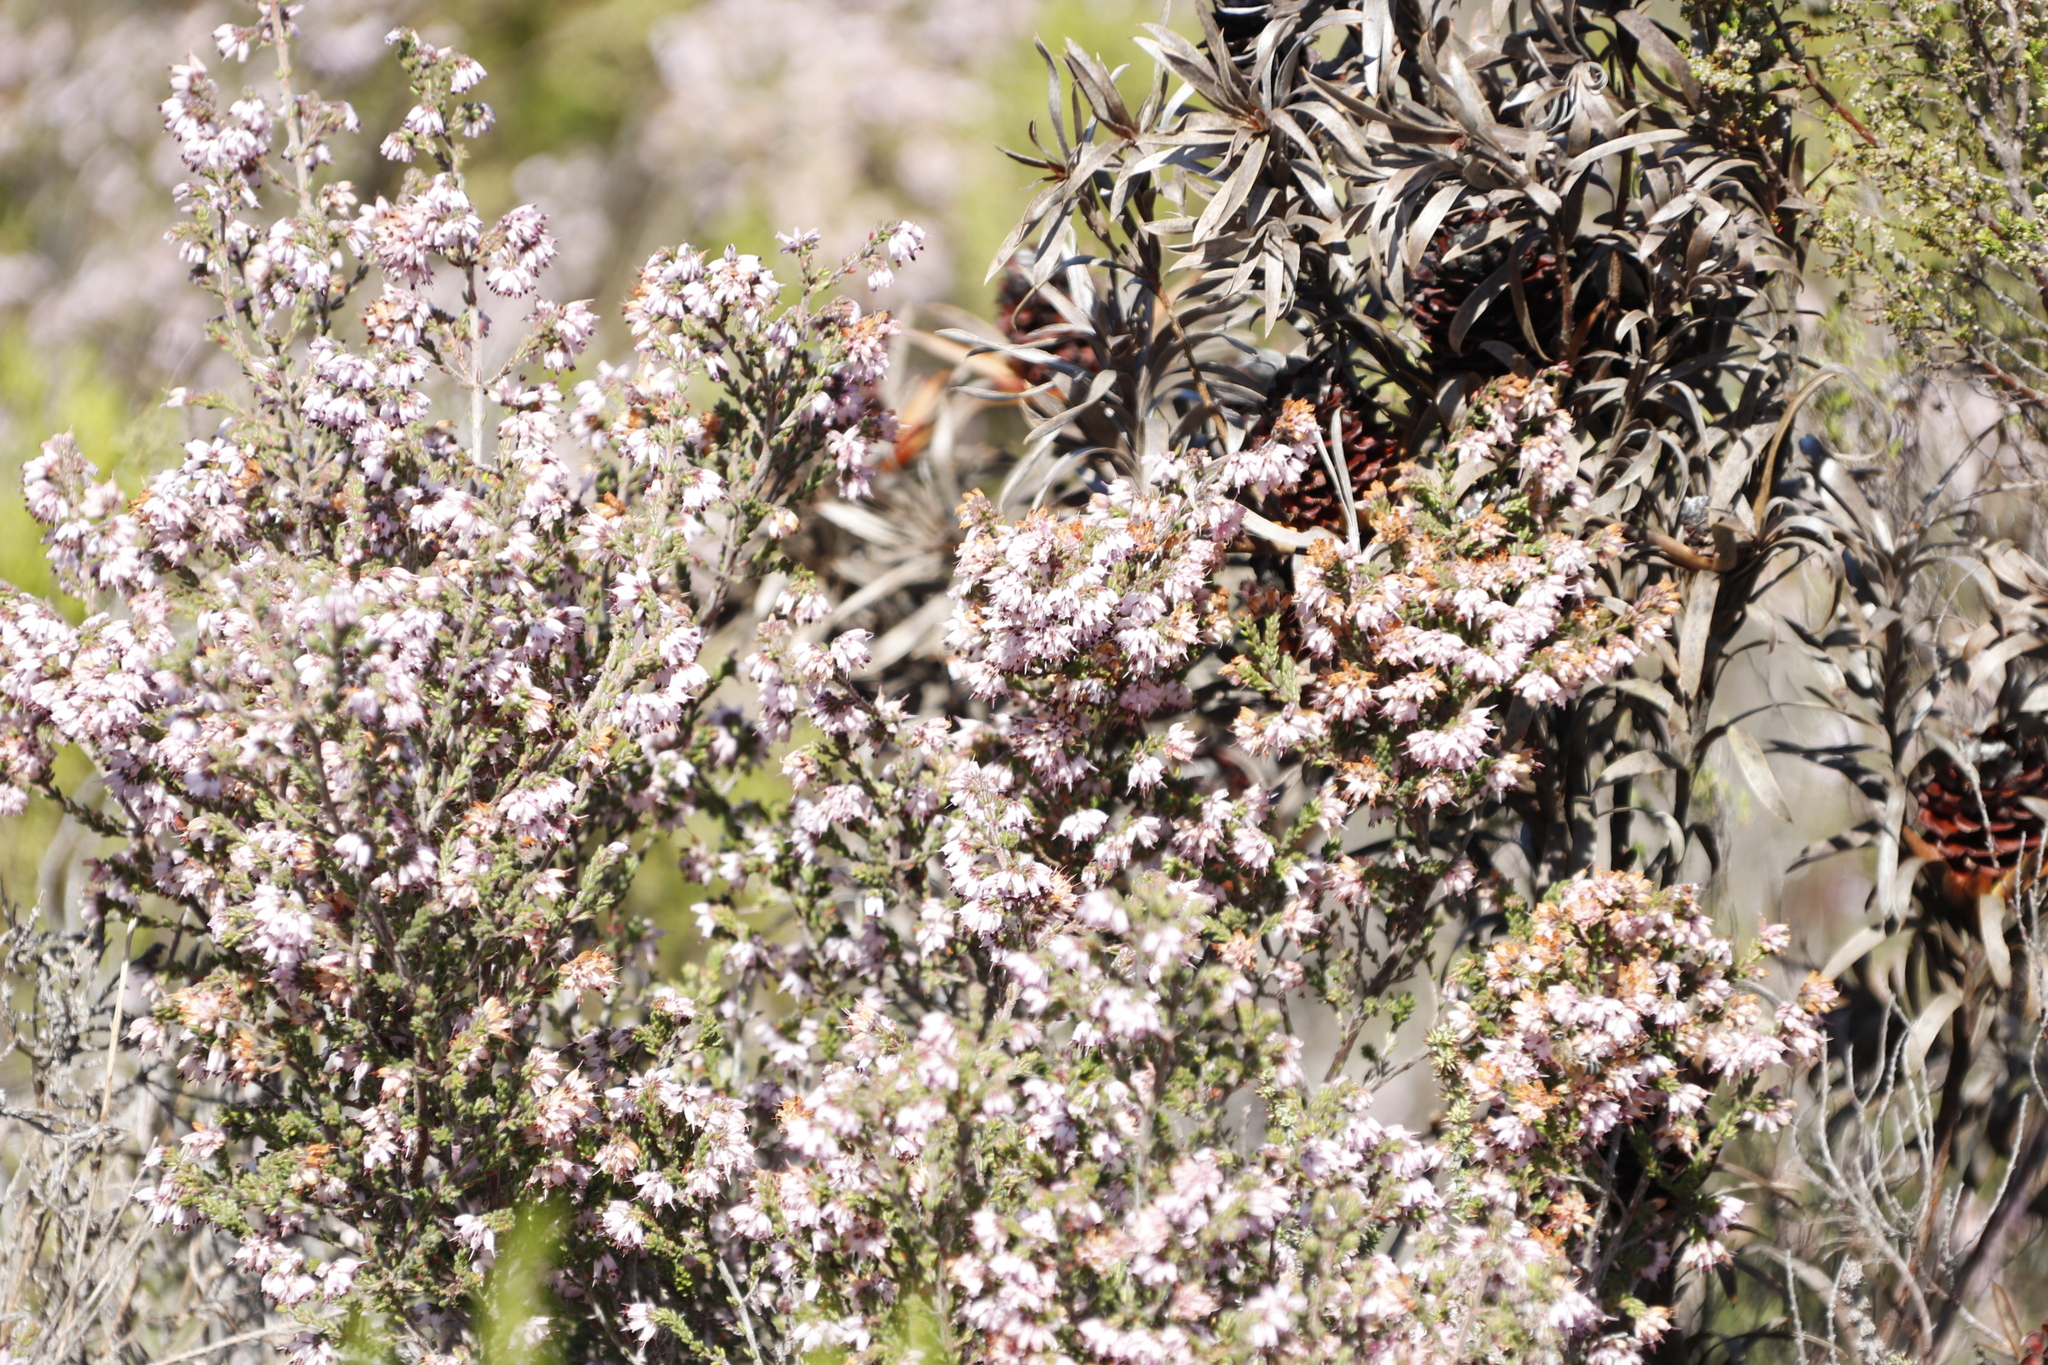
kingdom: Plantae
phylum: Tracheophyta
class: Magnoliopsida
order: Ericales
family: Ericaceae
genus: Erica
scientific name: Erica ericoides
